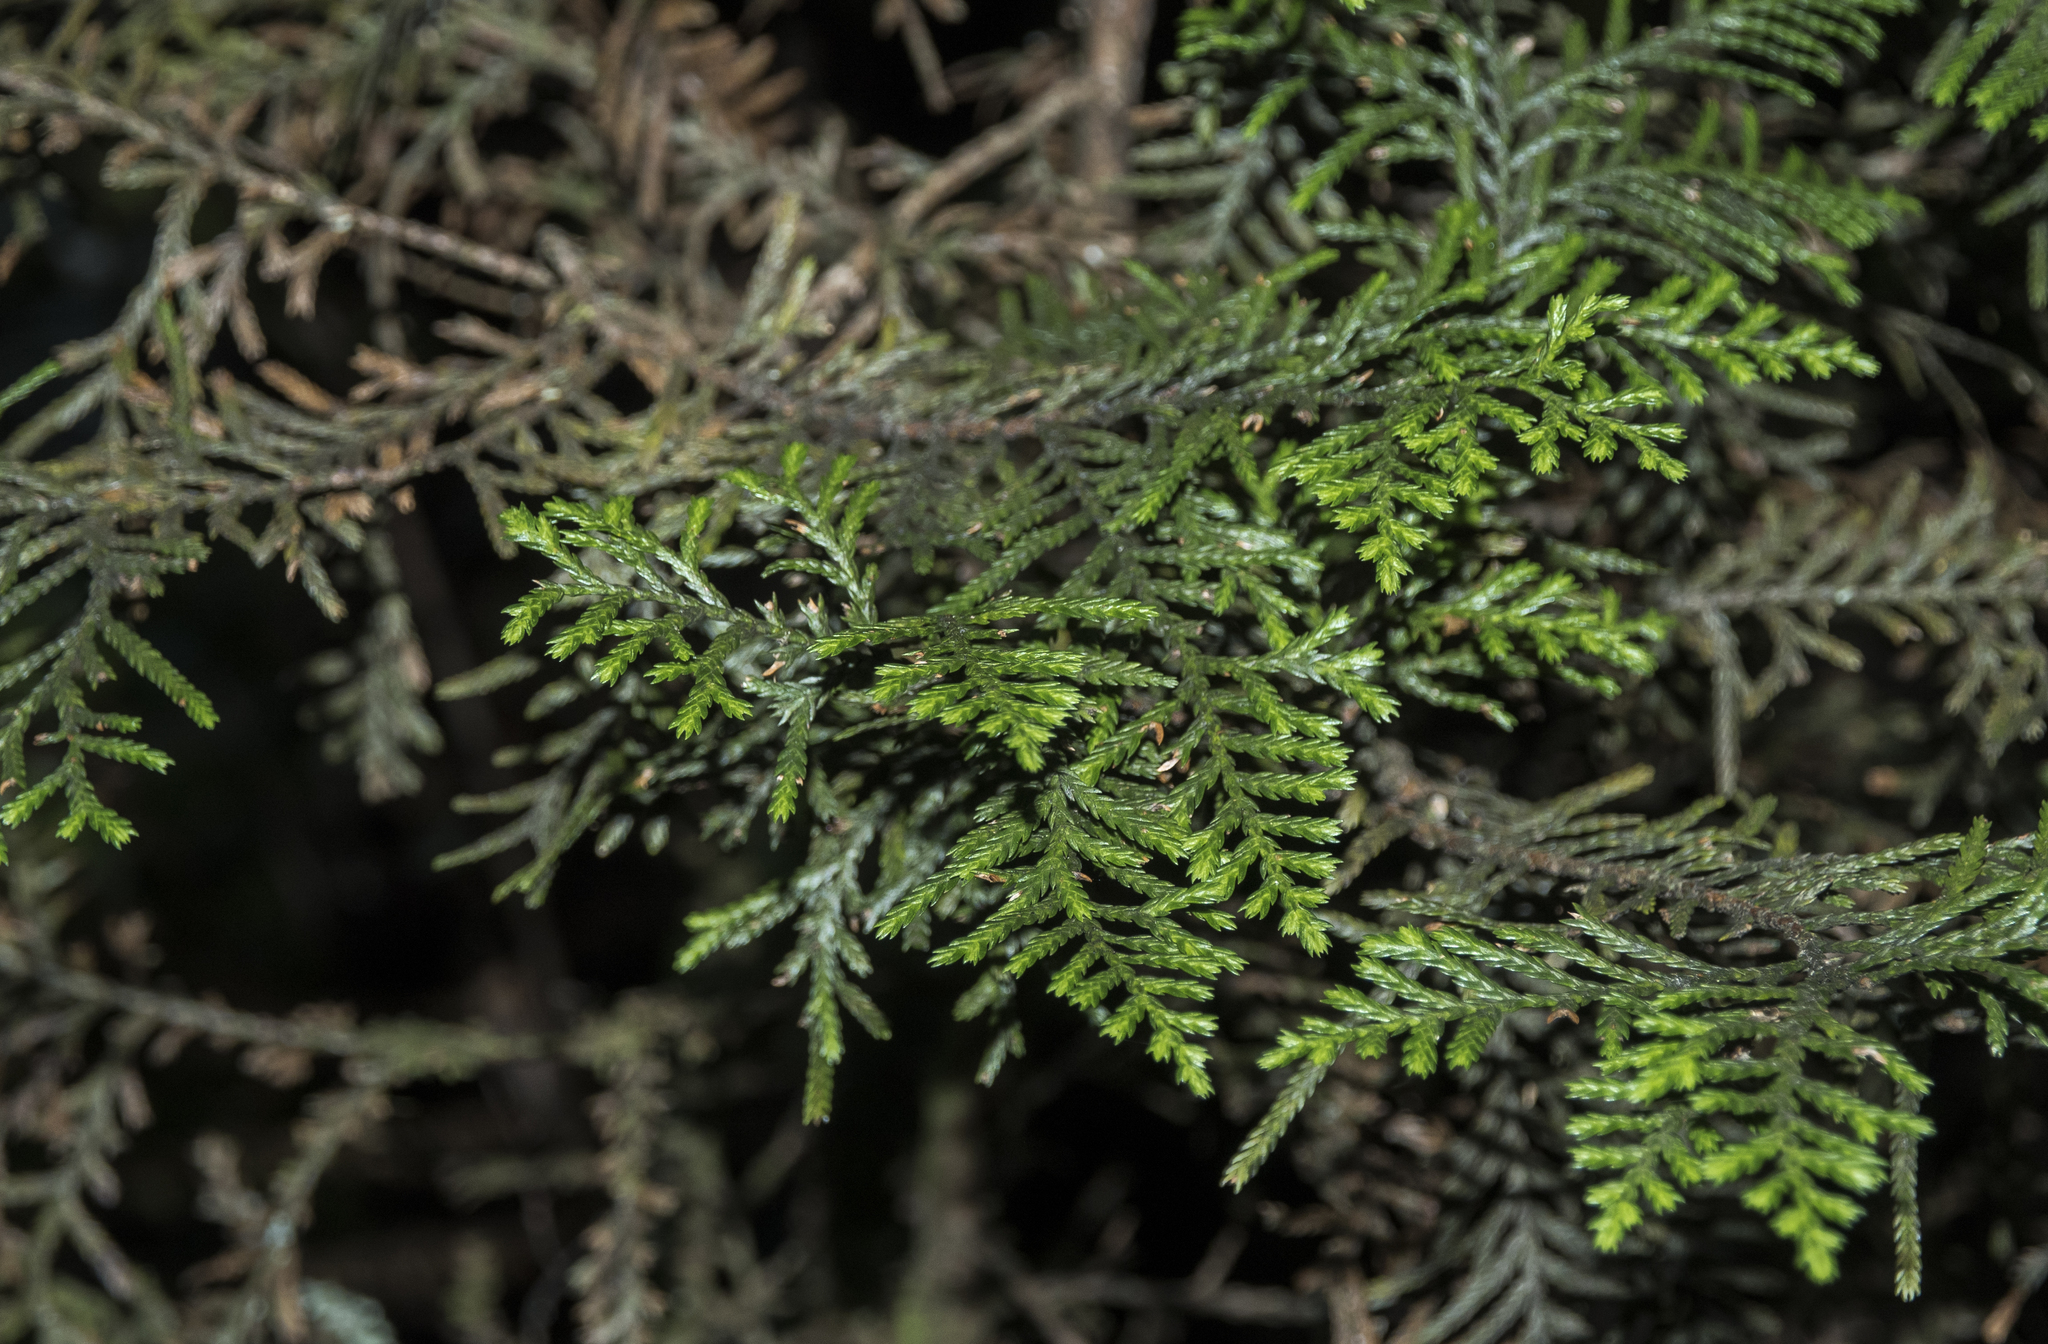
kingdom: Plantae
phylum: Tracheophyta
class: Pinopsida
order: Pinales
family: Cupressaceae
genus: Libocedrus
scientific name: Libocedrus bidwillii
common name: Cedar
